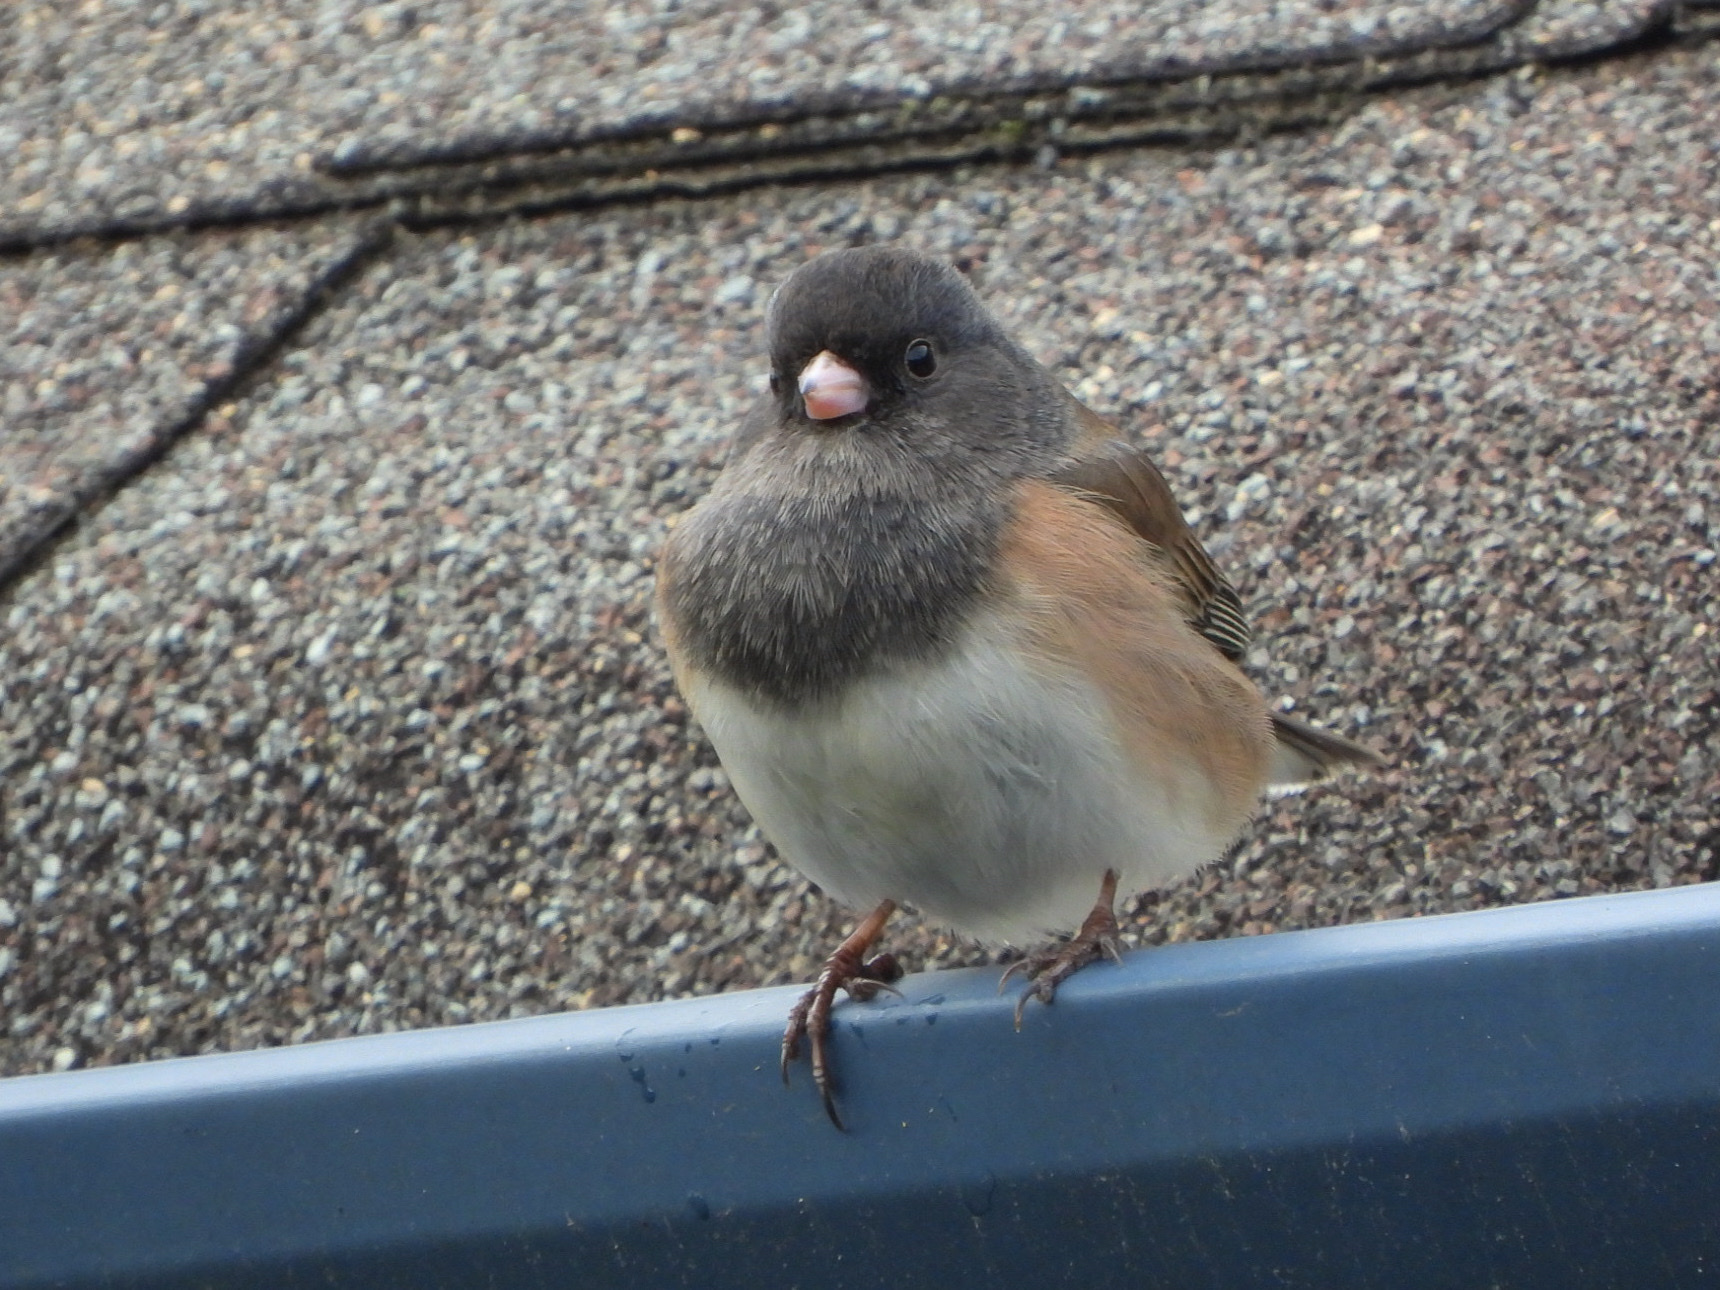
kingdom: Animalia
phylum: Chordata
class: Aves
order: Passeriformes
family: Passerellidae
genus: Junco
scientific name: Junco hyemalis
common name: Dark-eyed junco
